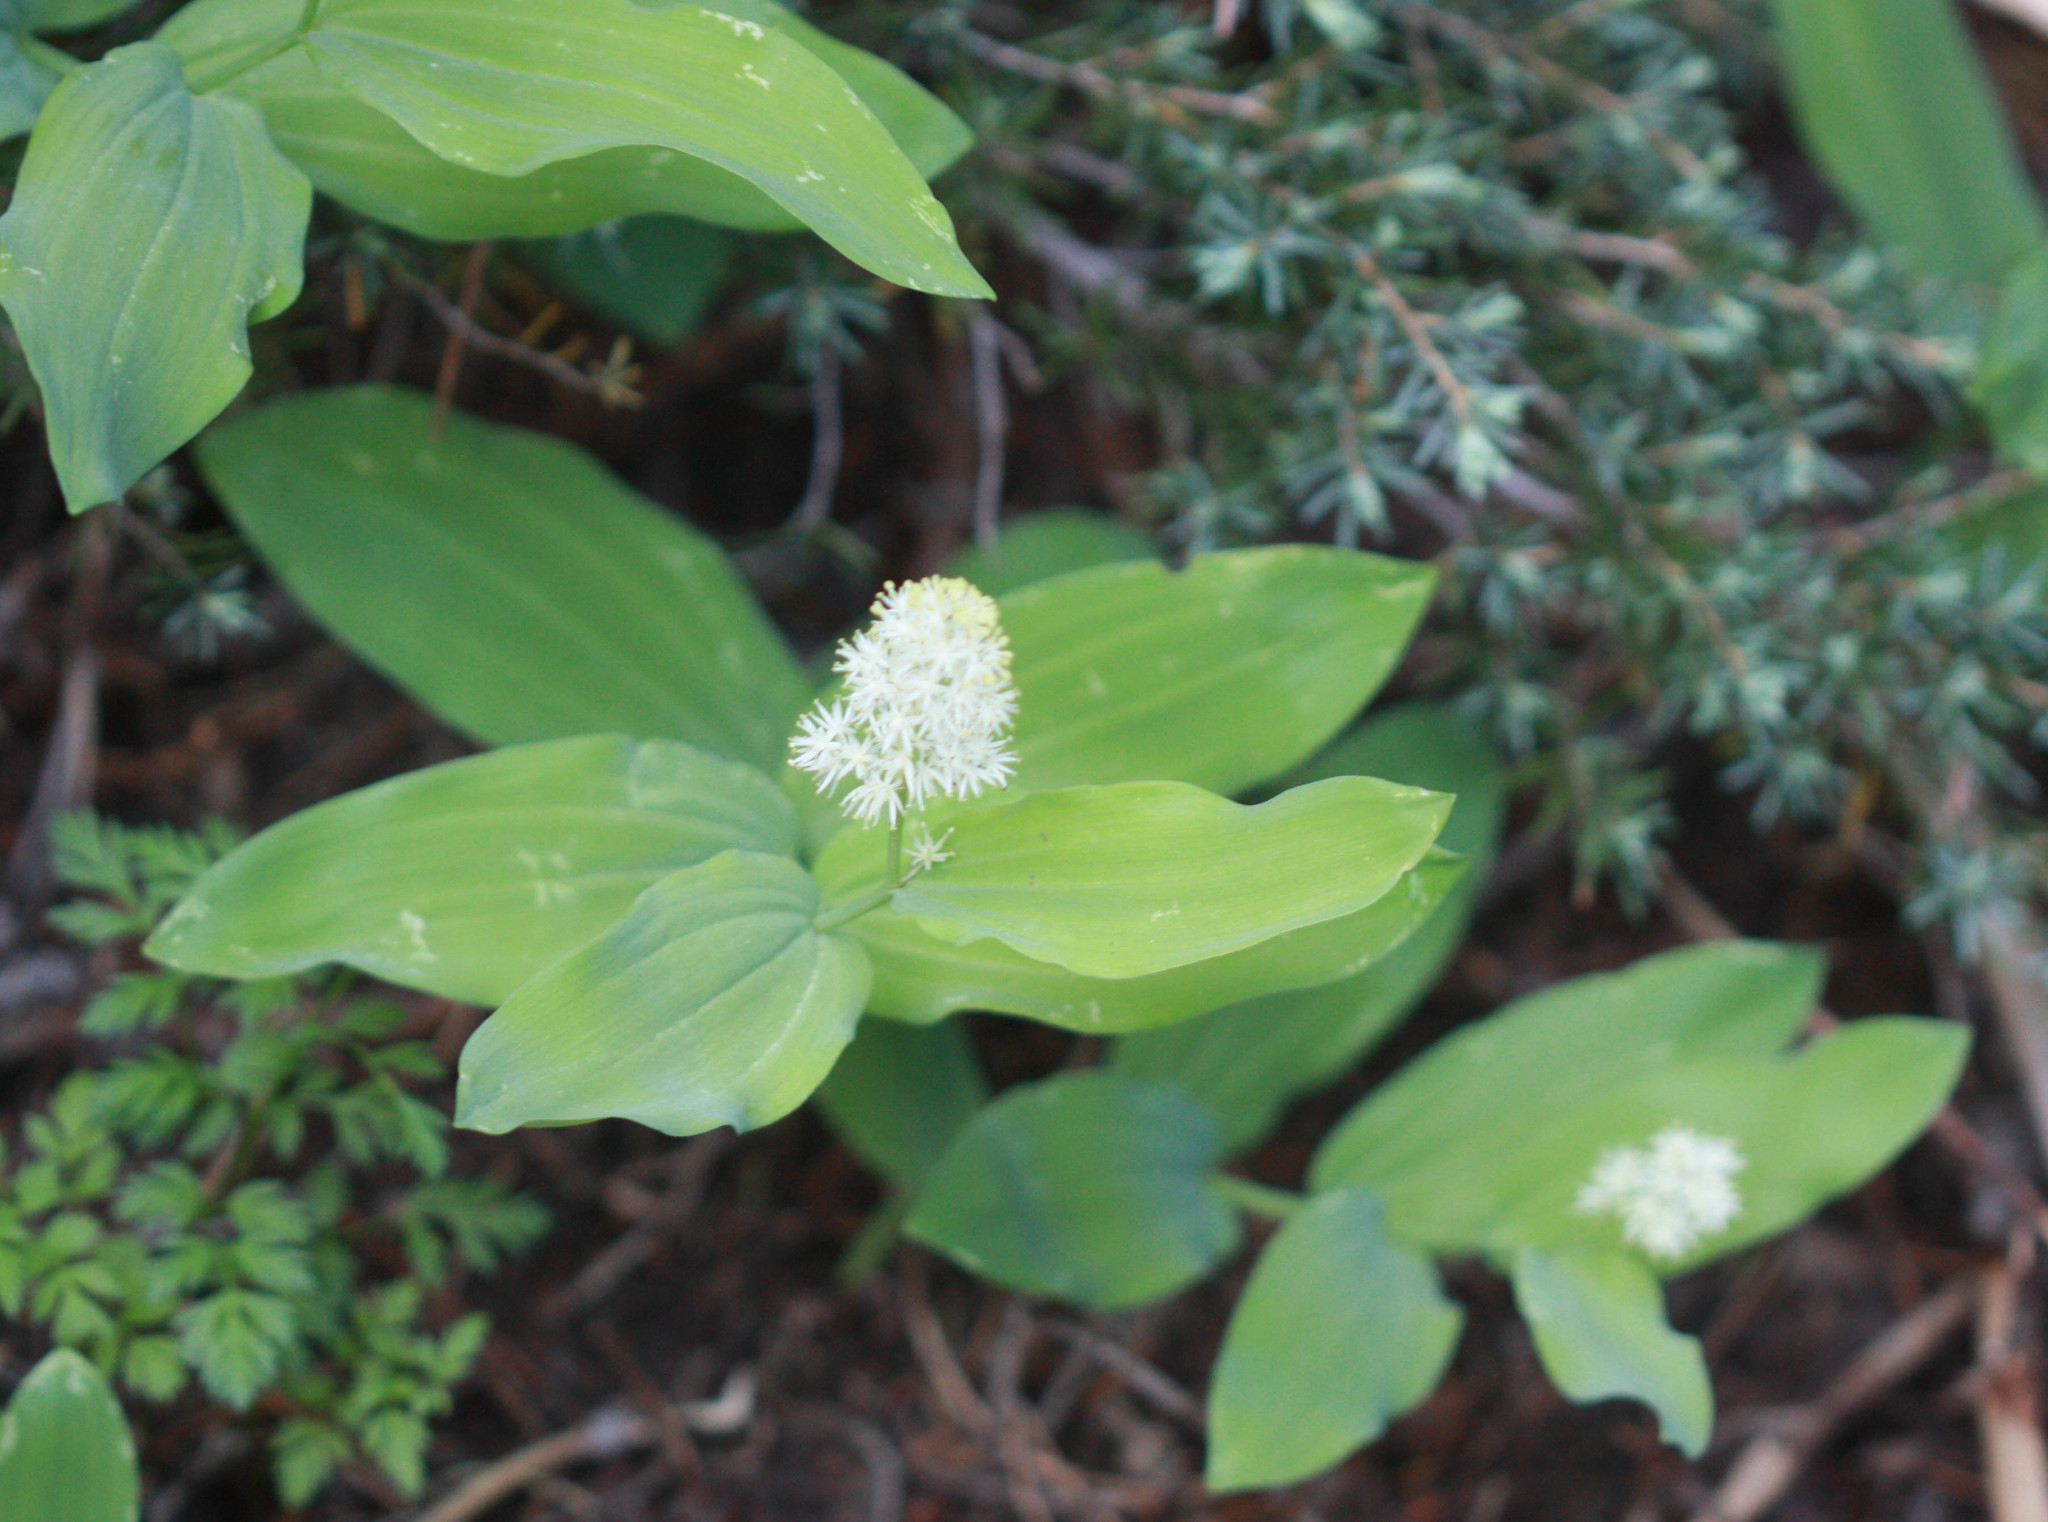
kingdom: Plantae
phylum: Tracheophyta
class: Liliopsida
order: Asparagales
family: Asparagaceae
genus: Maianthemum
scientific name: Maianthemum racemosum
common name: False spikenard
